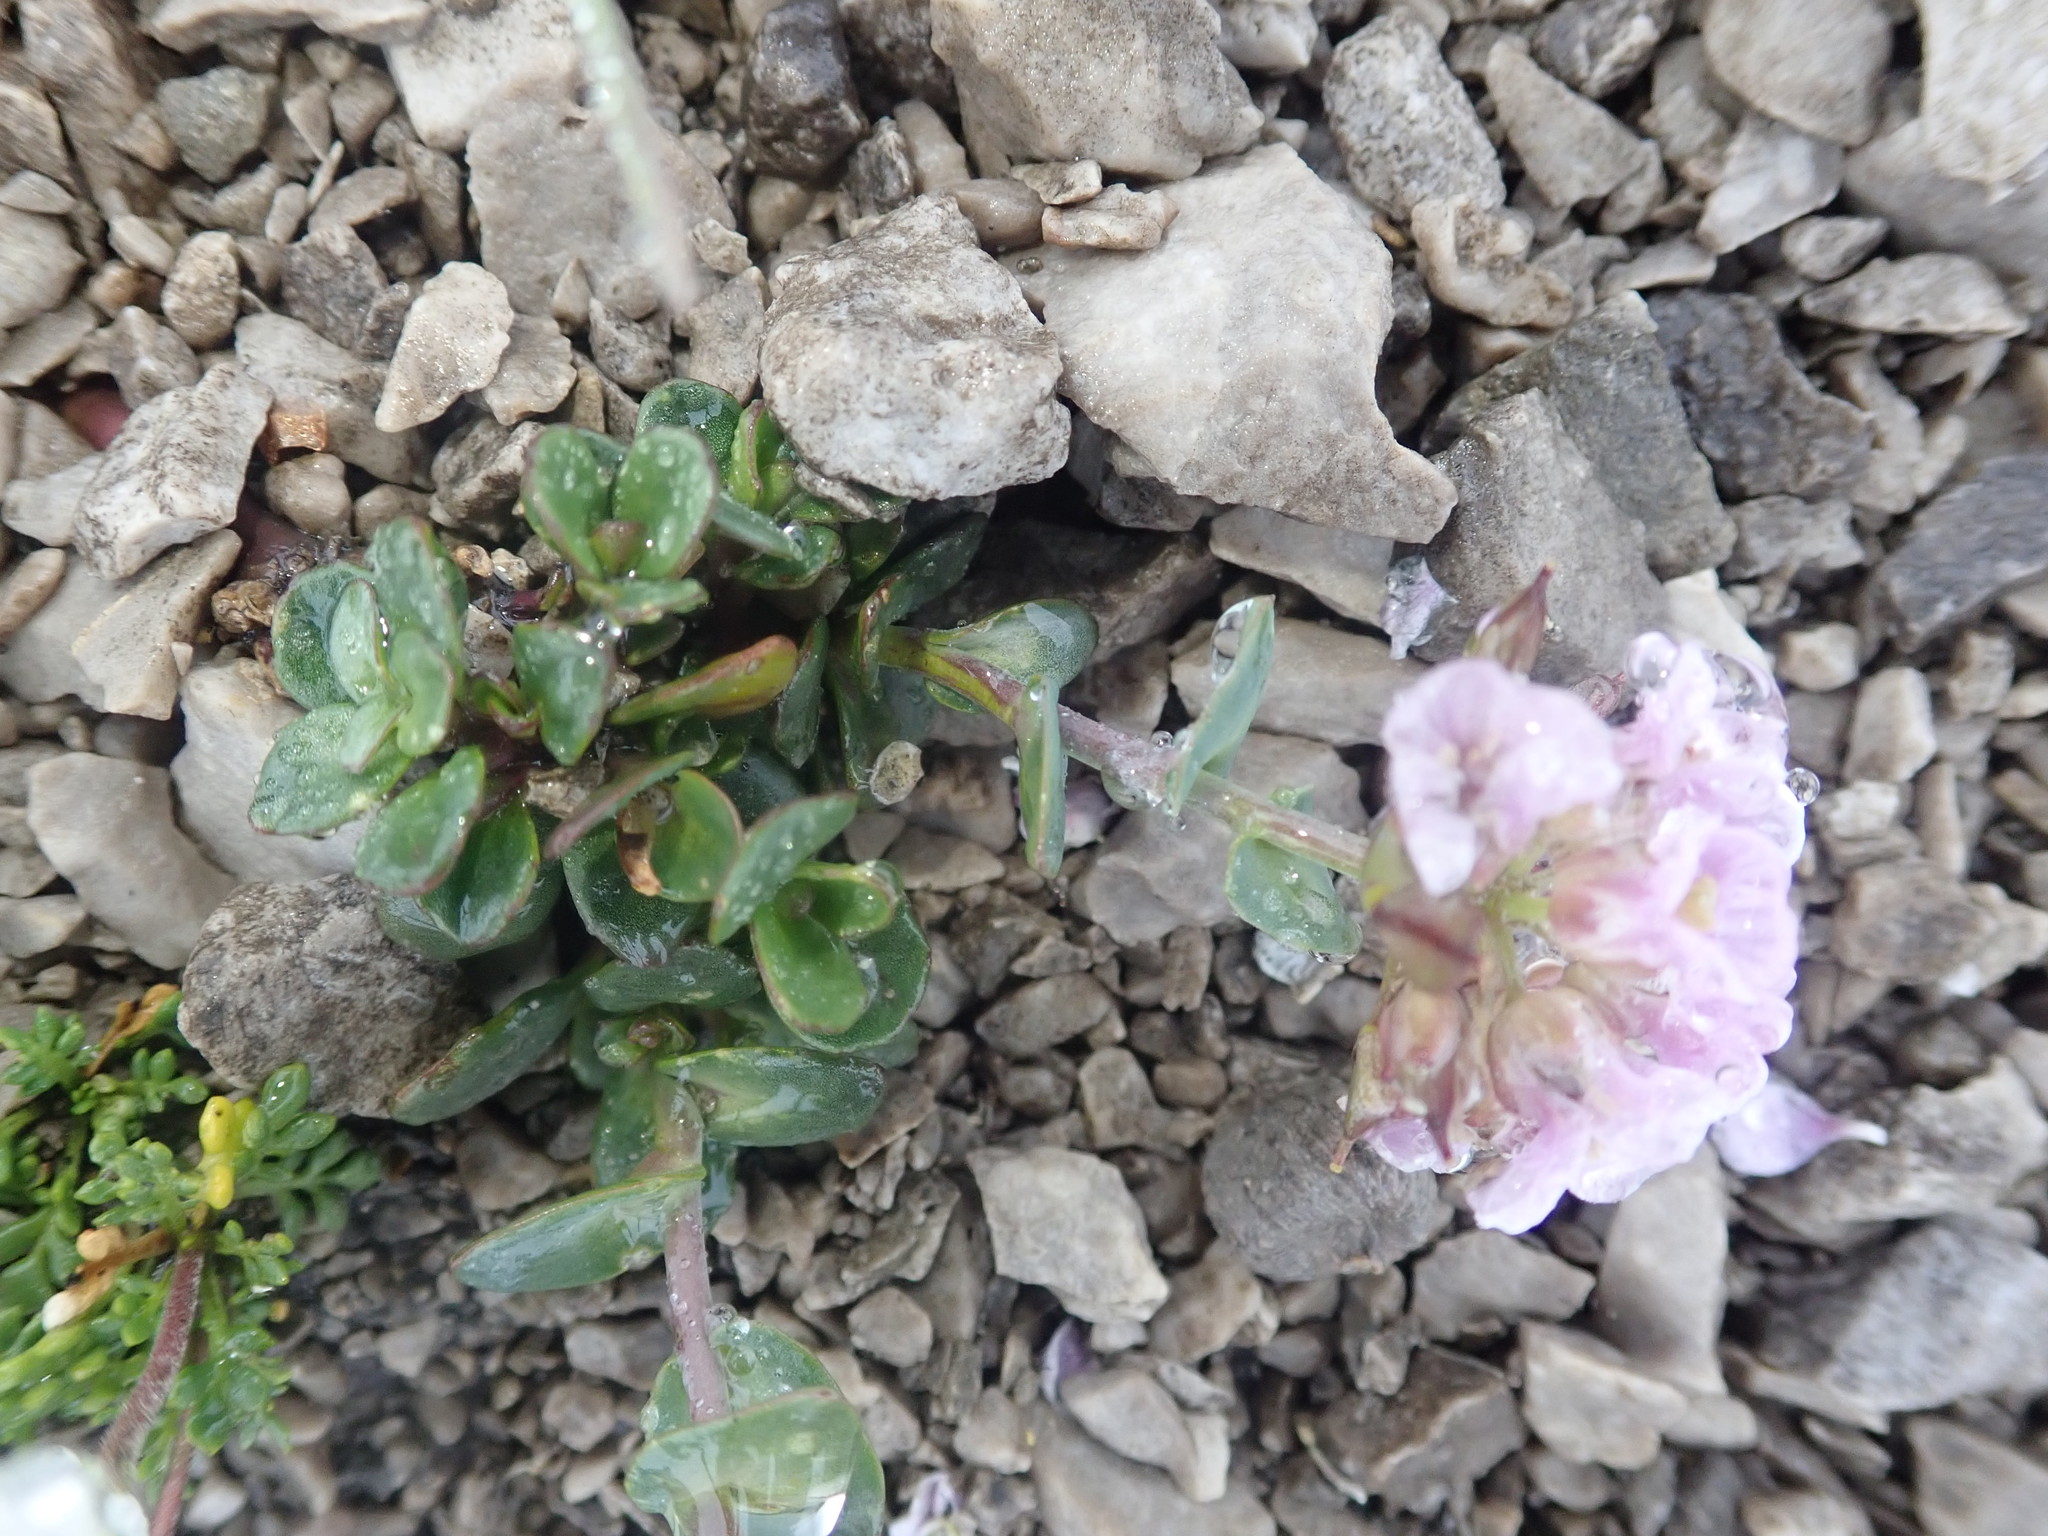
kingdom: Plantae
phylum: Tracheophyta
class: Magnoliopsida
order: Brassicales
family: Brassicaceae
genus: Noccaea
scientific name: Noccaea rotundifolia
